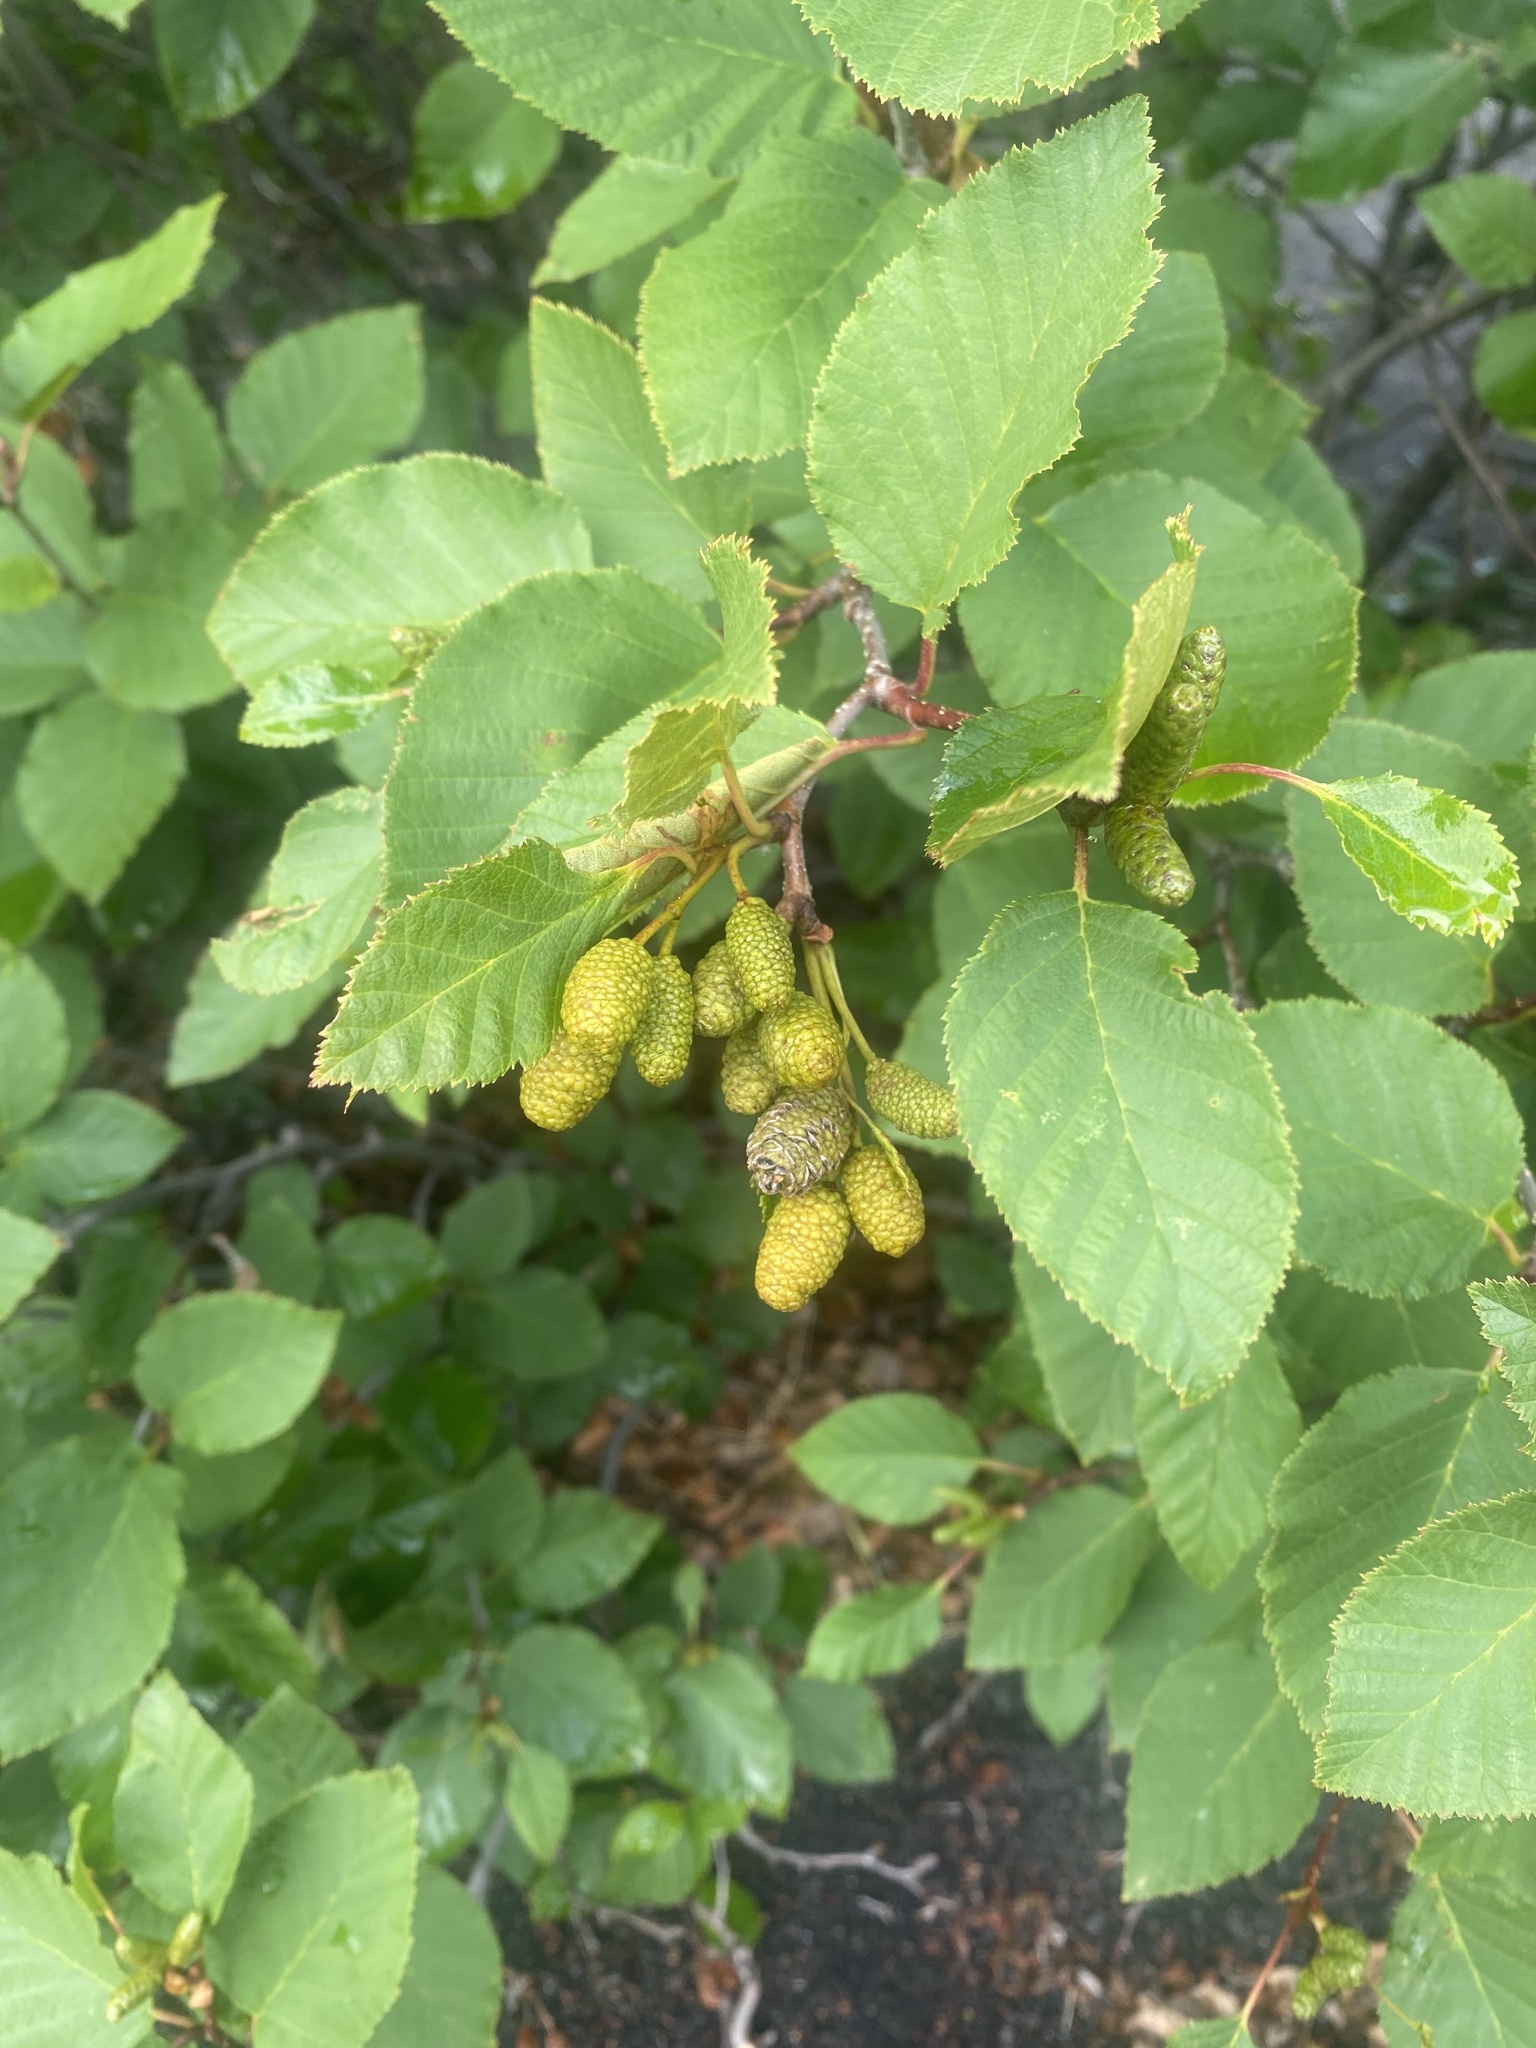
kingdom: Plantae
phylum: Tracheophyta
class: Magnoliopsida
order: Fagales
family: Betulaceae
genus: Alnus
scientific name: Alnus alnobetula
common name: Green alder
